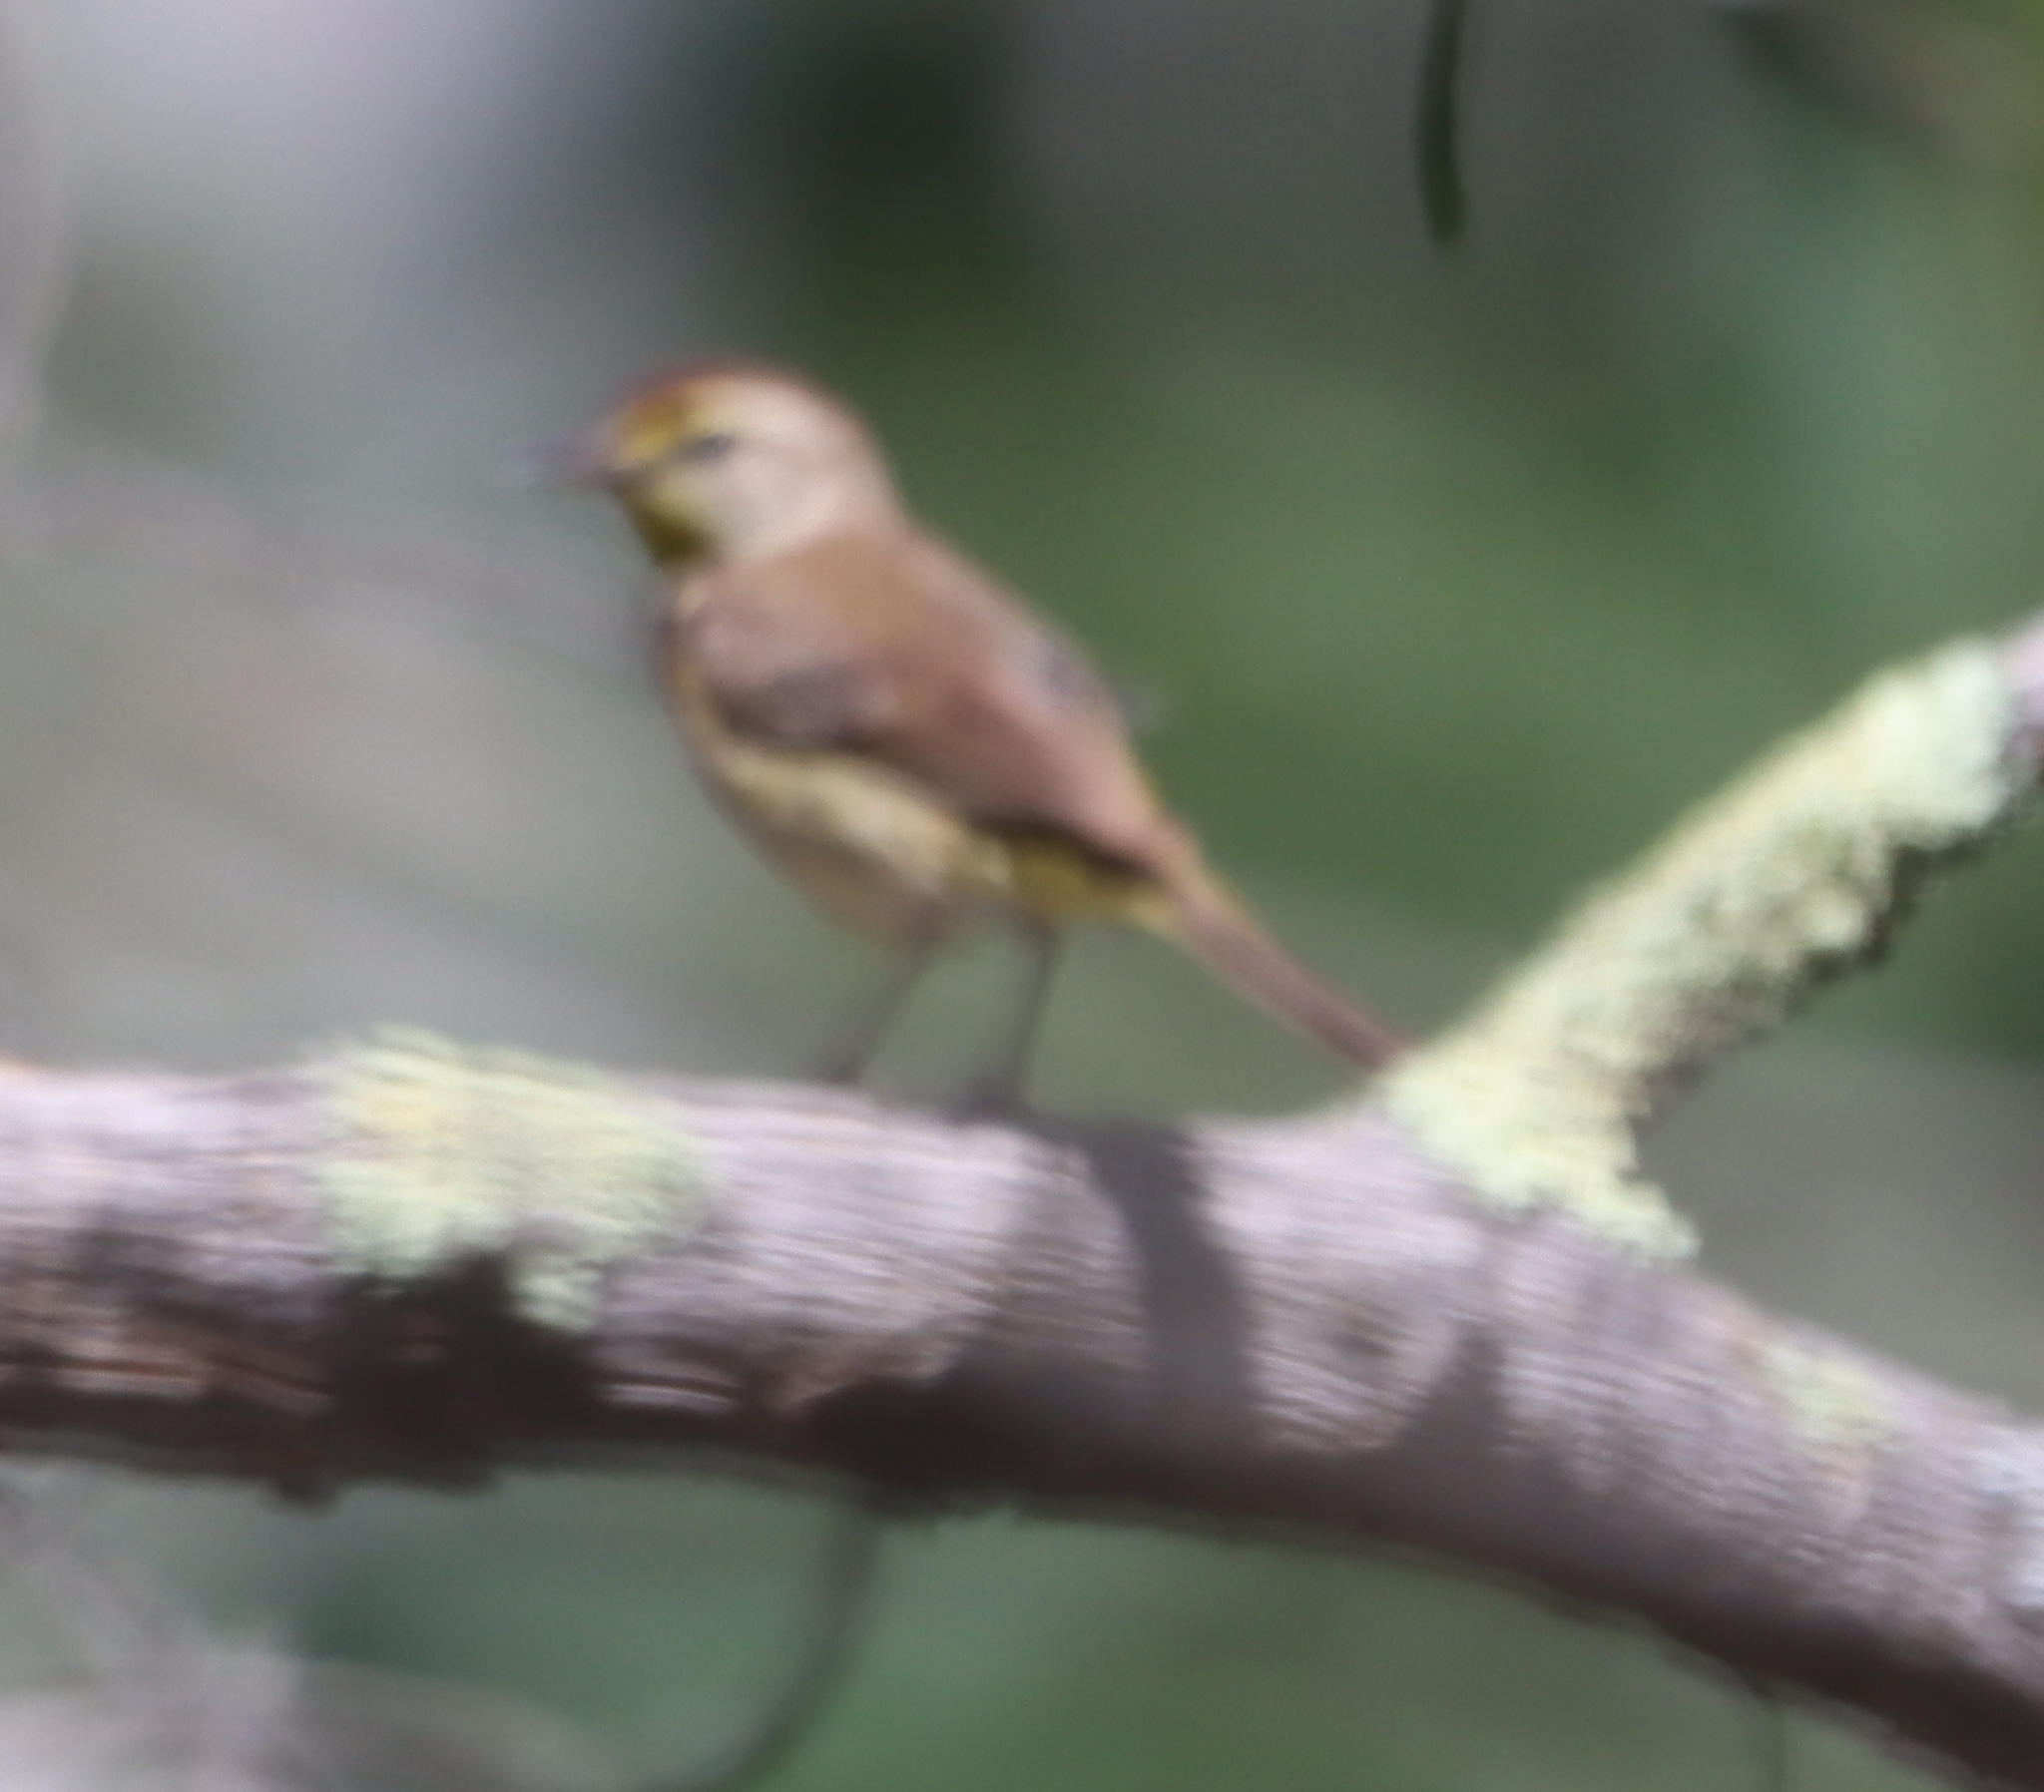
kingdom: Animalia
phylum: Chordata
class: Aves
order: Passeriformes
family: Parulidae
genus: Setophaga
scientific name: Setophaga palmarum
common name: Palm warbler
